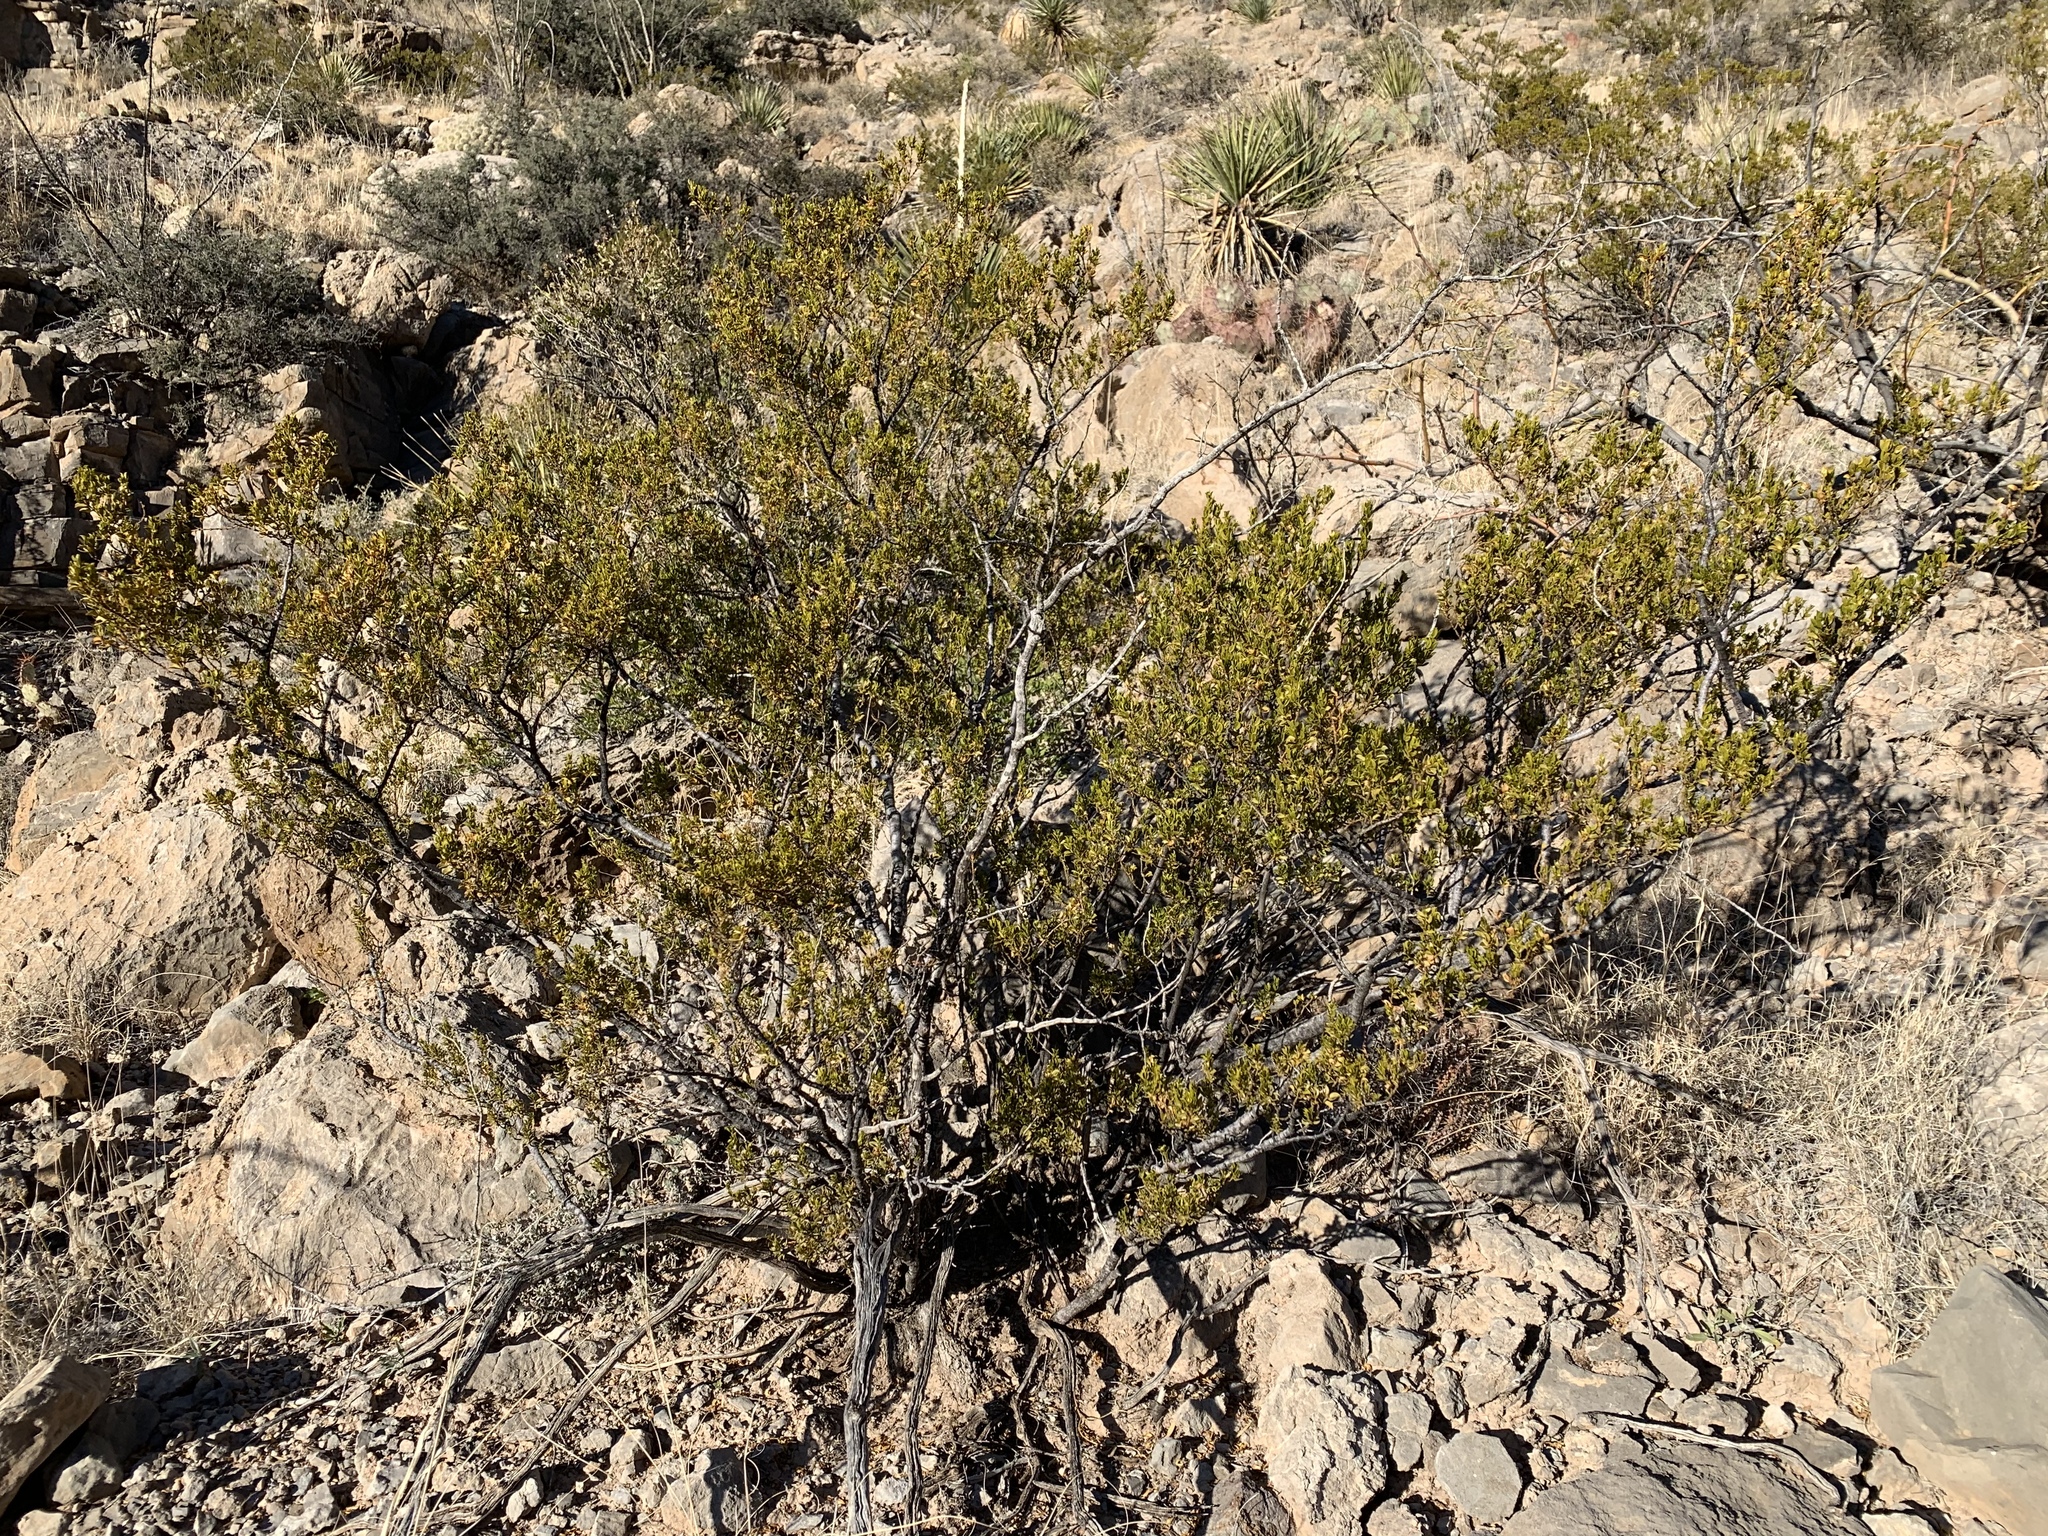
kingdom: Plantae
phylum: Tracheophyta
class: Magnoliopsida
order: Zygophyllales
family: Zygophyllaceae
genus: Larrea
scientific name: Larrea tridentata
